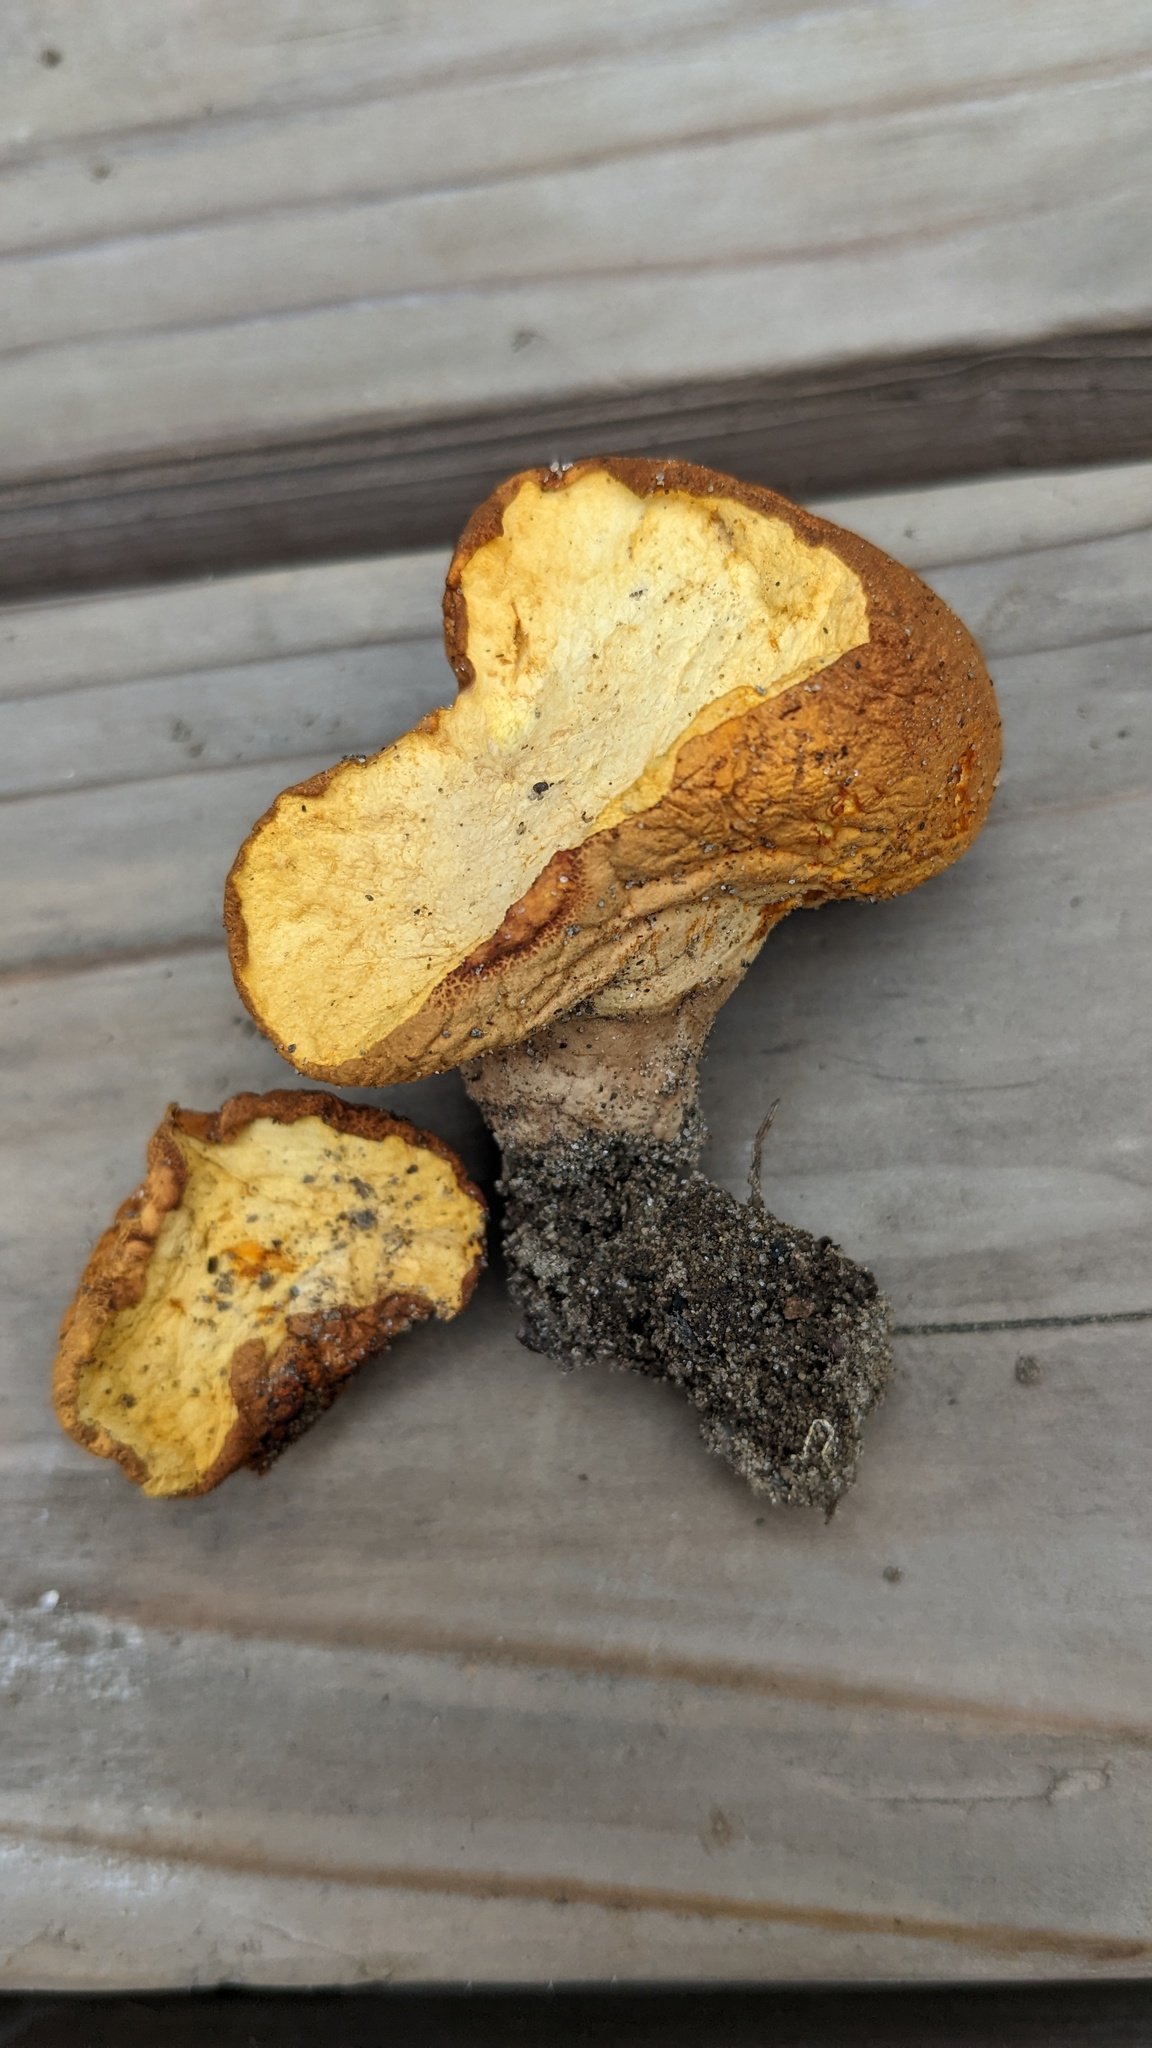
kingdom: Fungi
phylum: Basidiomycota
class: Agaricomycetes
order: Agaricales
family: Lycoperdaceae
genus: Calvatia
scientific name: Calvatia craniiformis
